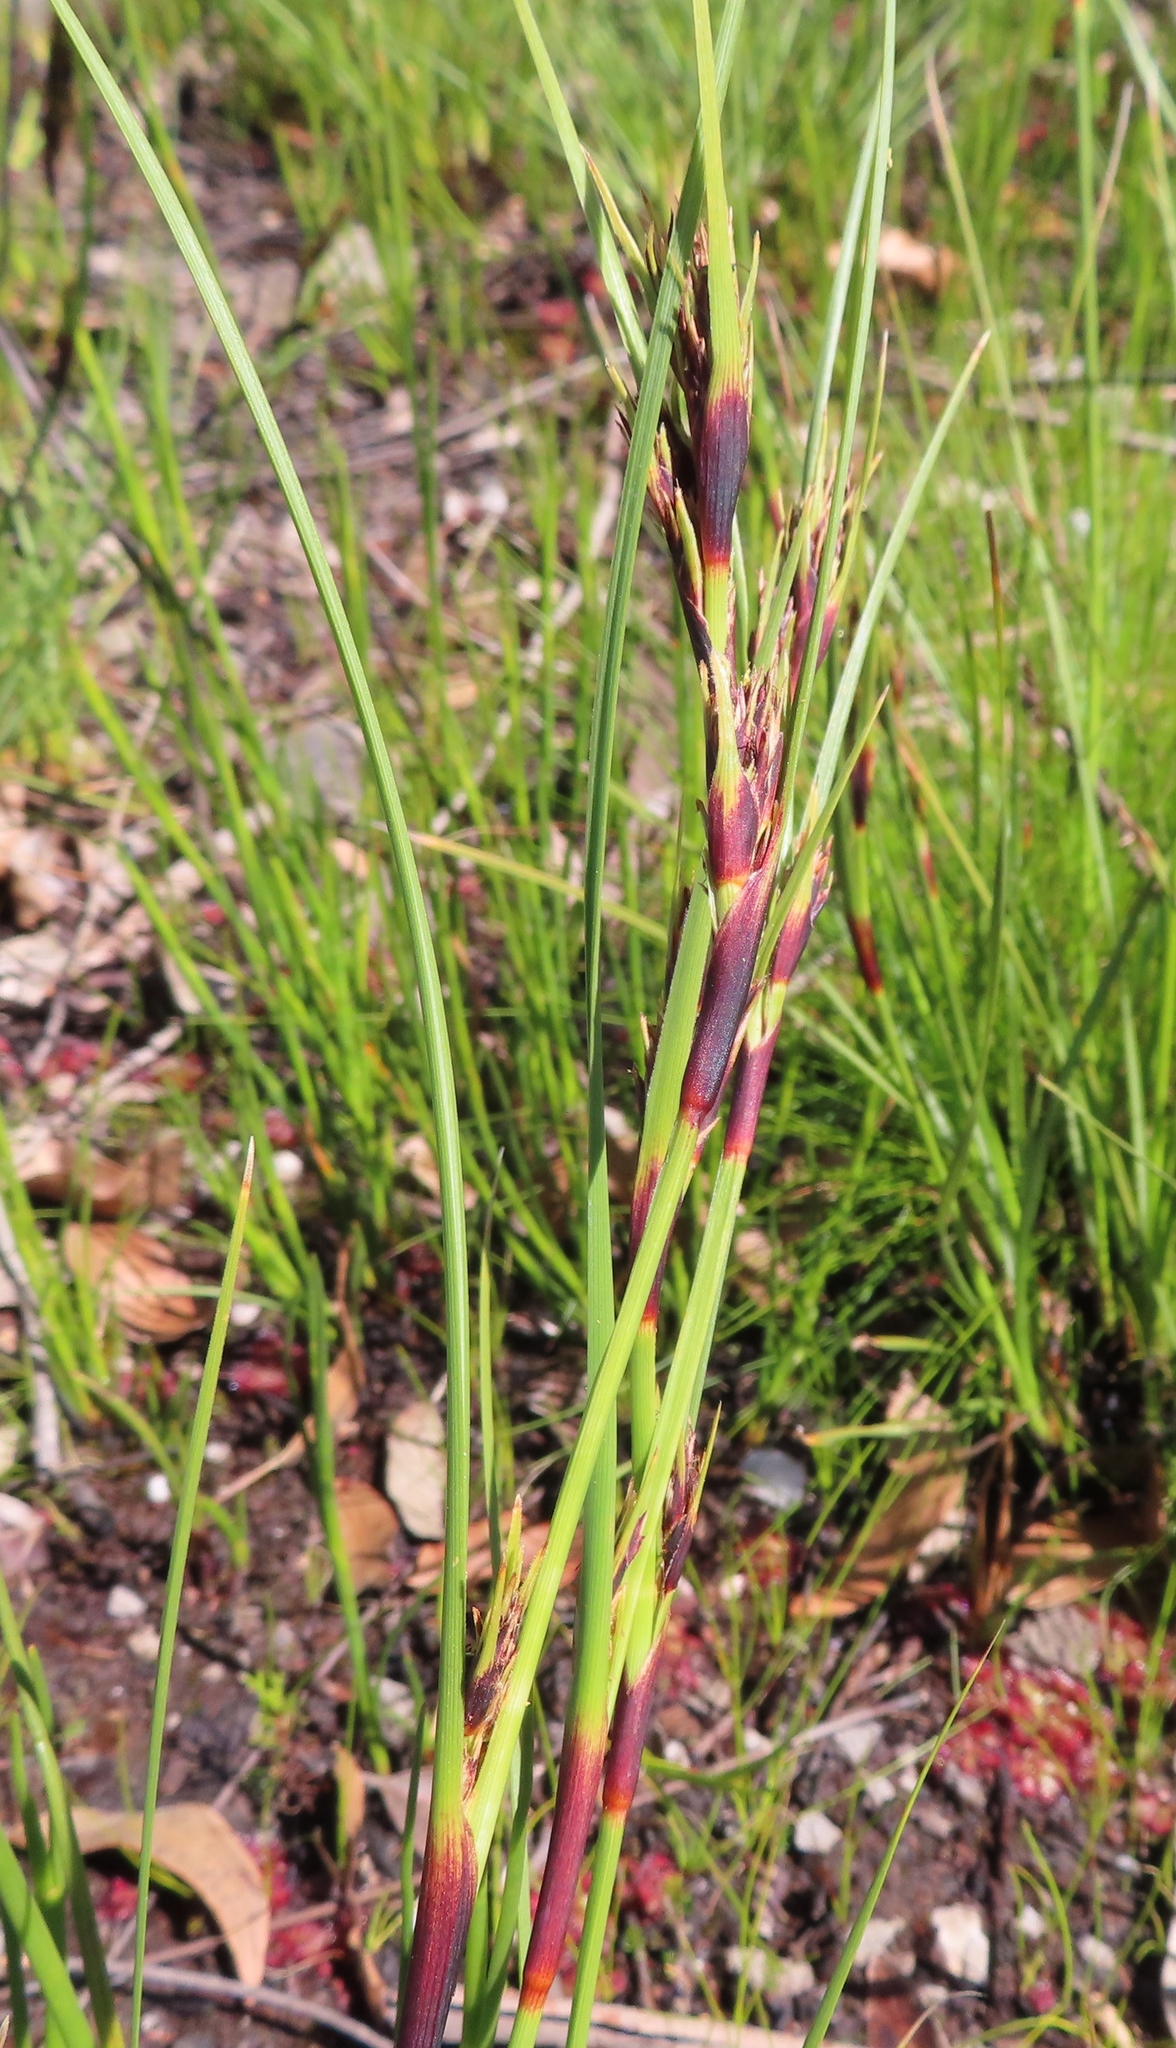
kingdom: Plantae
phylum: Tracheophyta
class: Liliopsida
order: Poales
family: Cyperaceae
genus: Cyathocoma
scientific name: Cyathocoma hexandra
